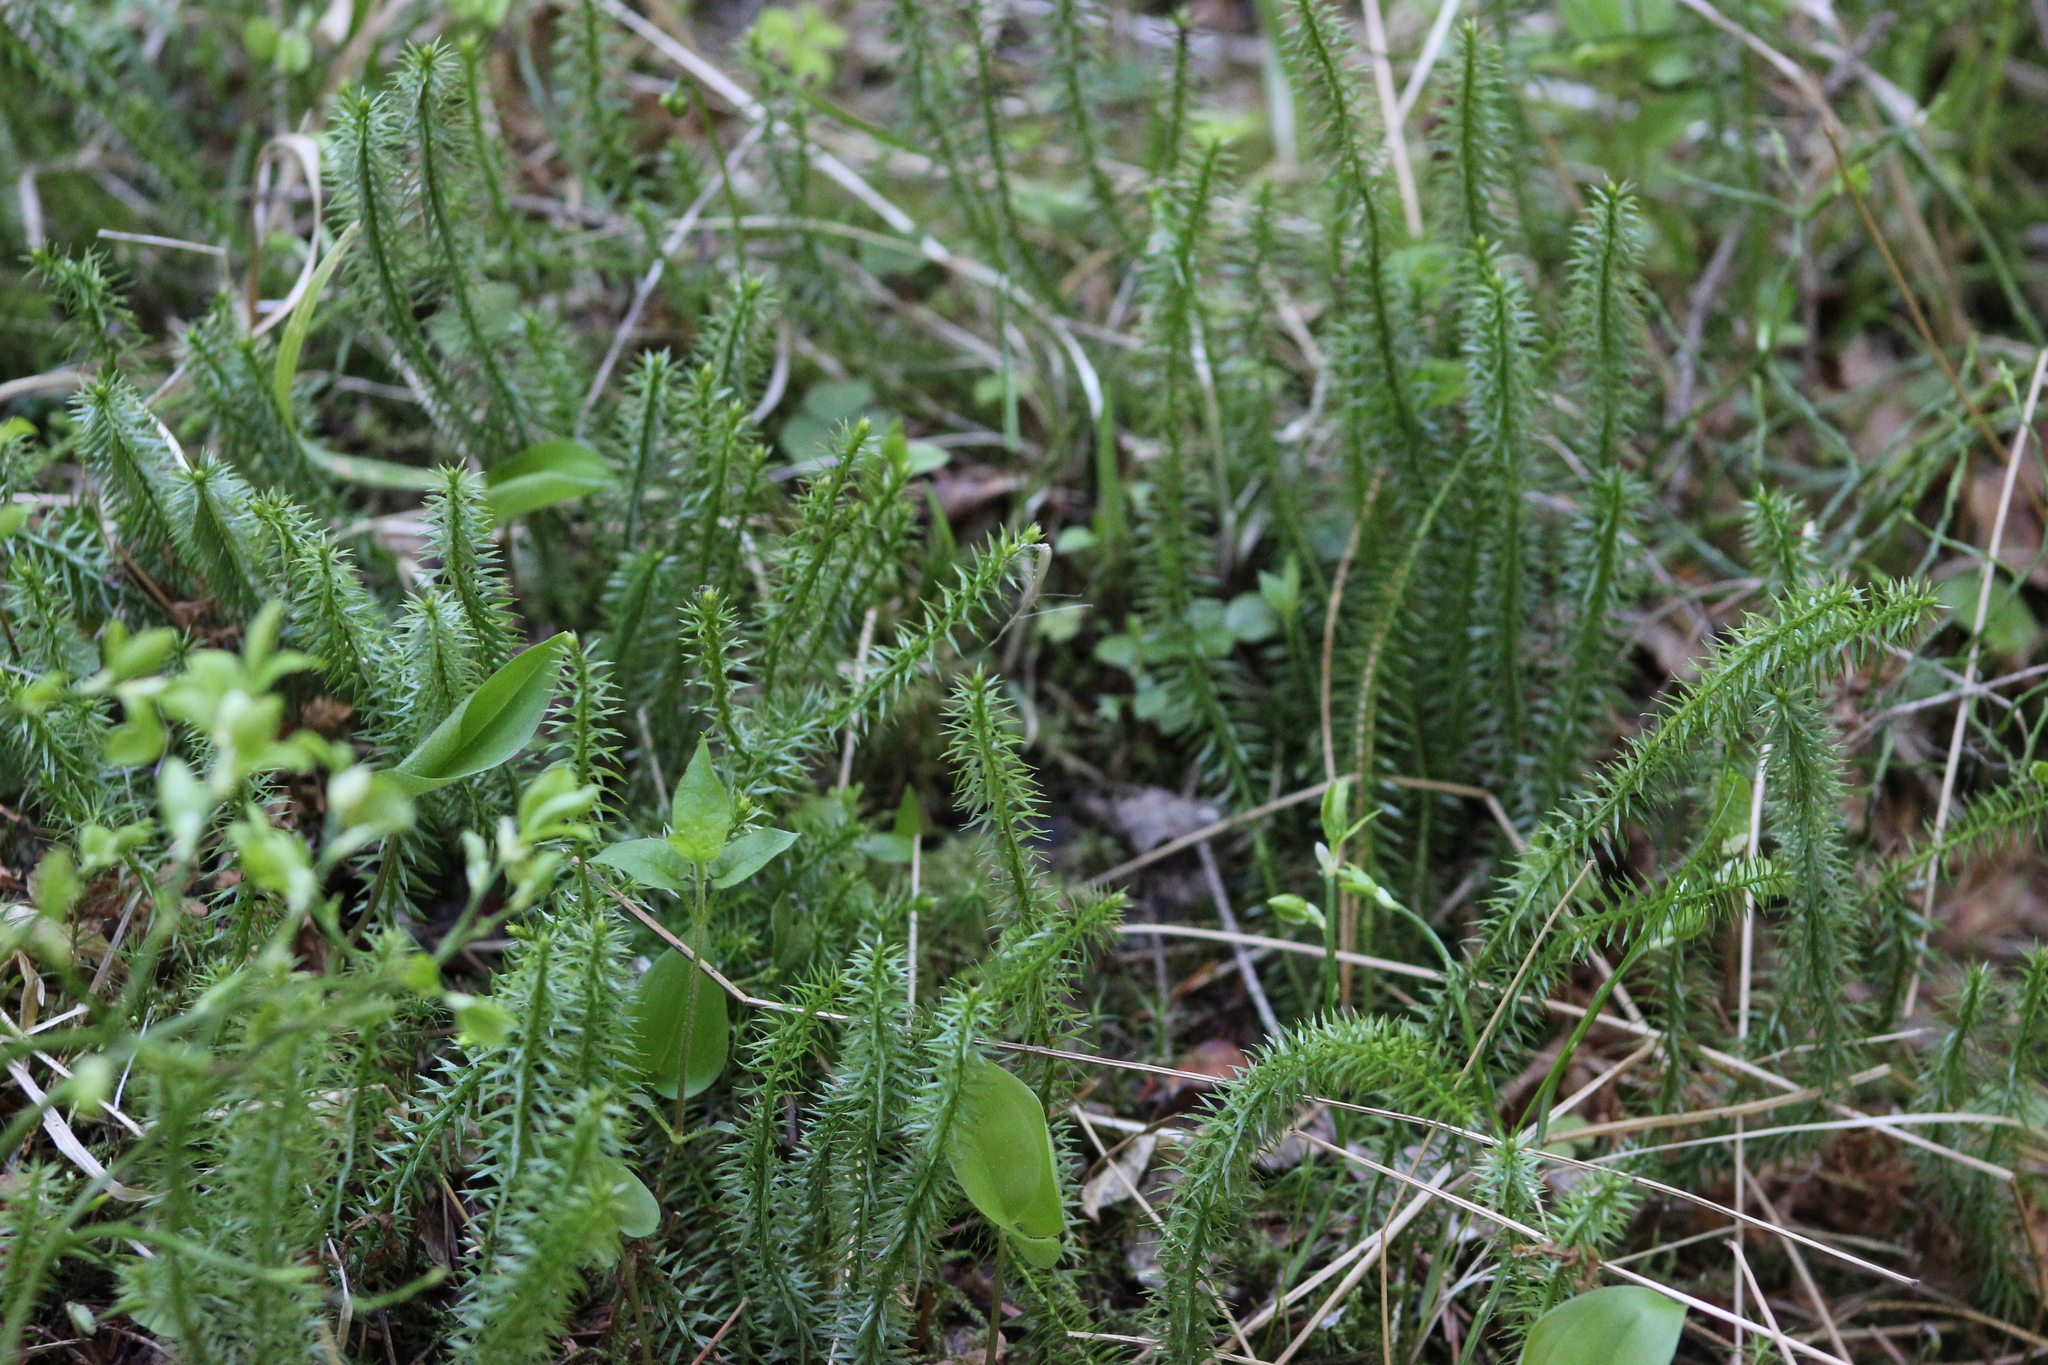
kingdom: Plantae
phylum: Tracheophyta
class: Lycopodiopsida
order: Lycopodiales
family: Lycopodiaceae
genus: Spinulum
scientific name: Spinulum annotinum
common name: Interrupted club-moss
